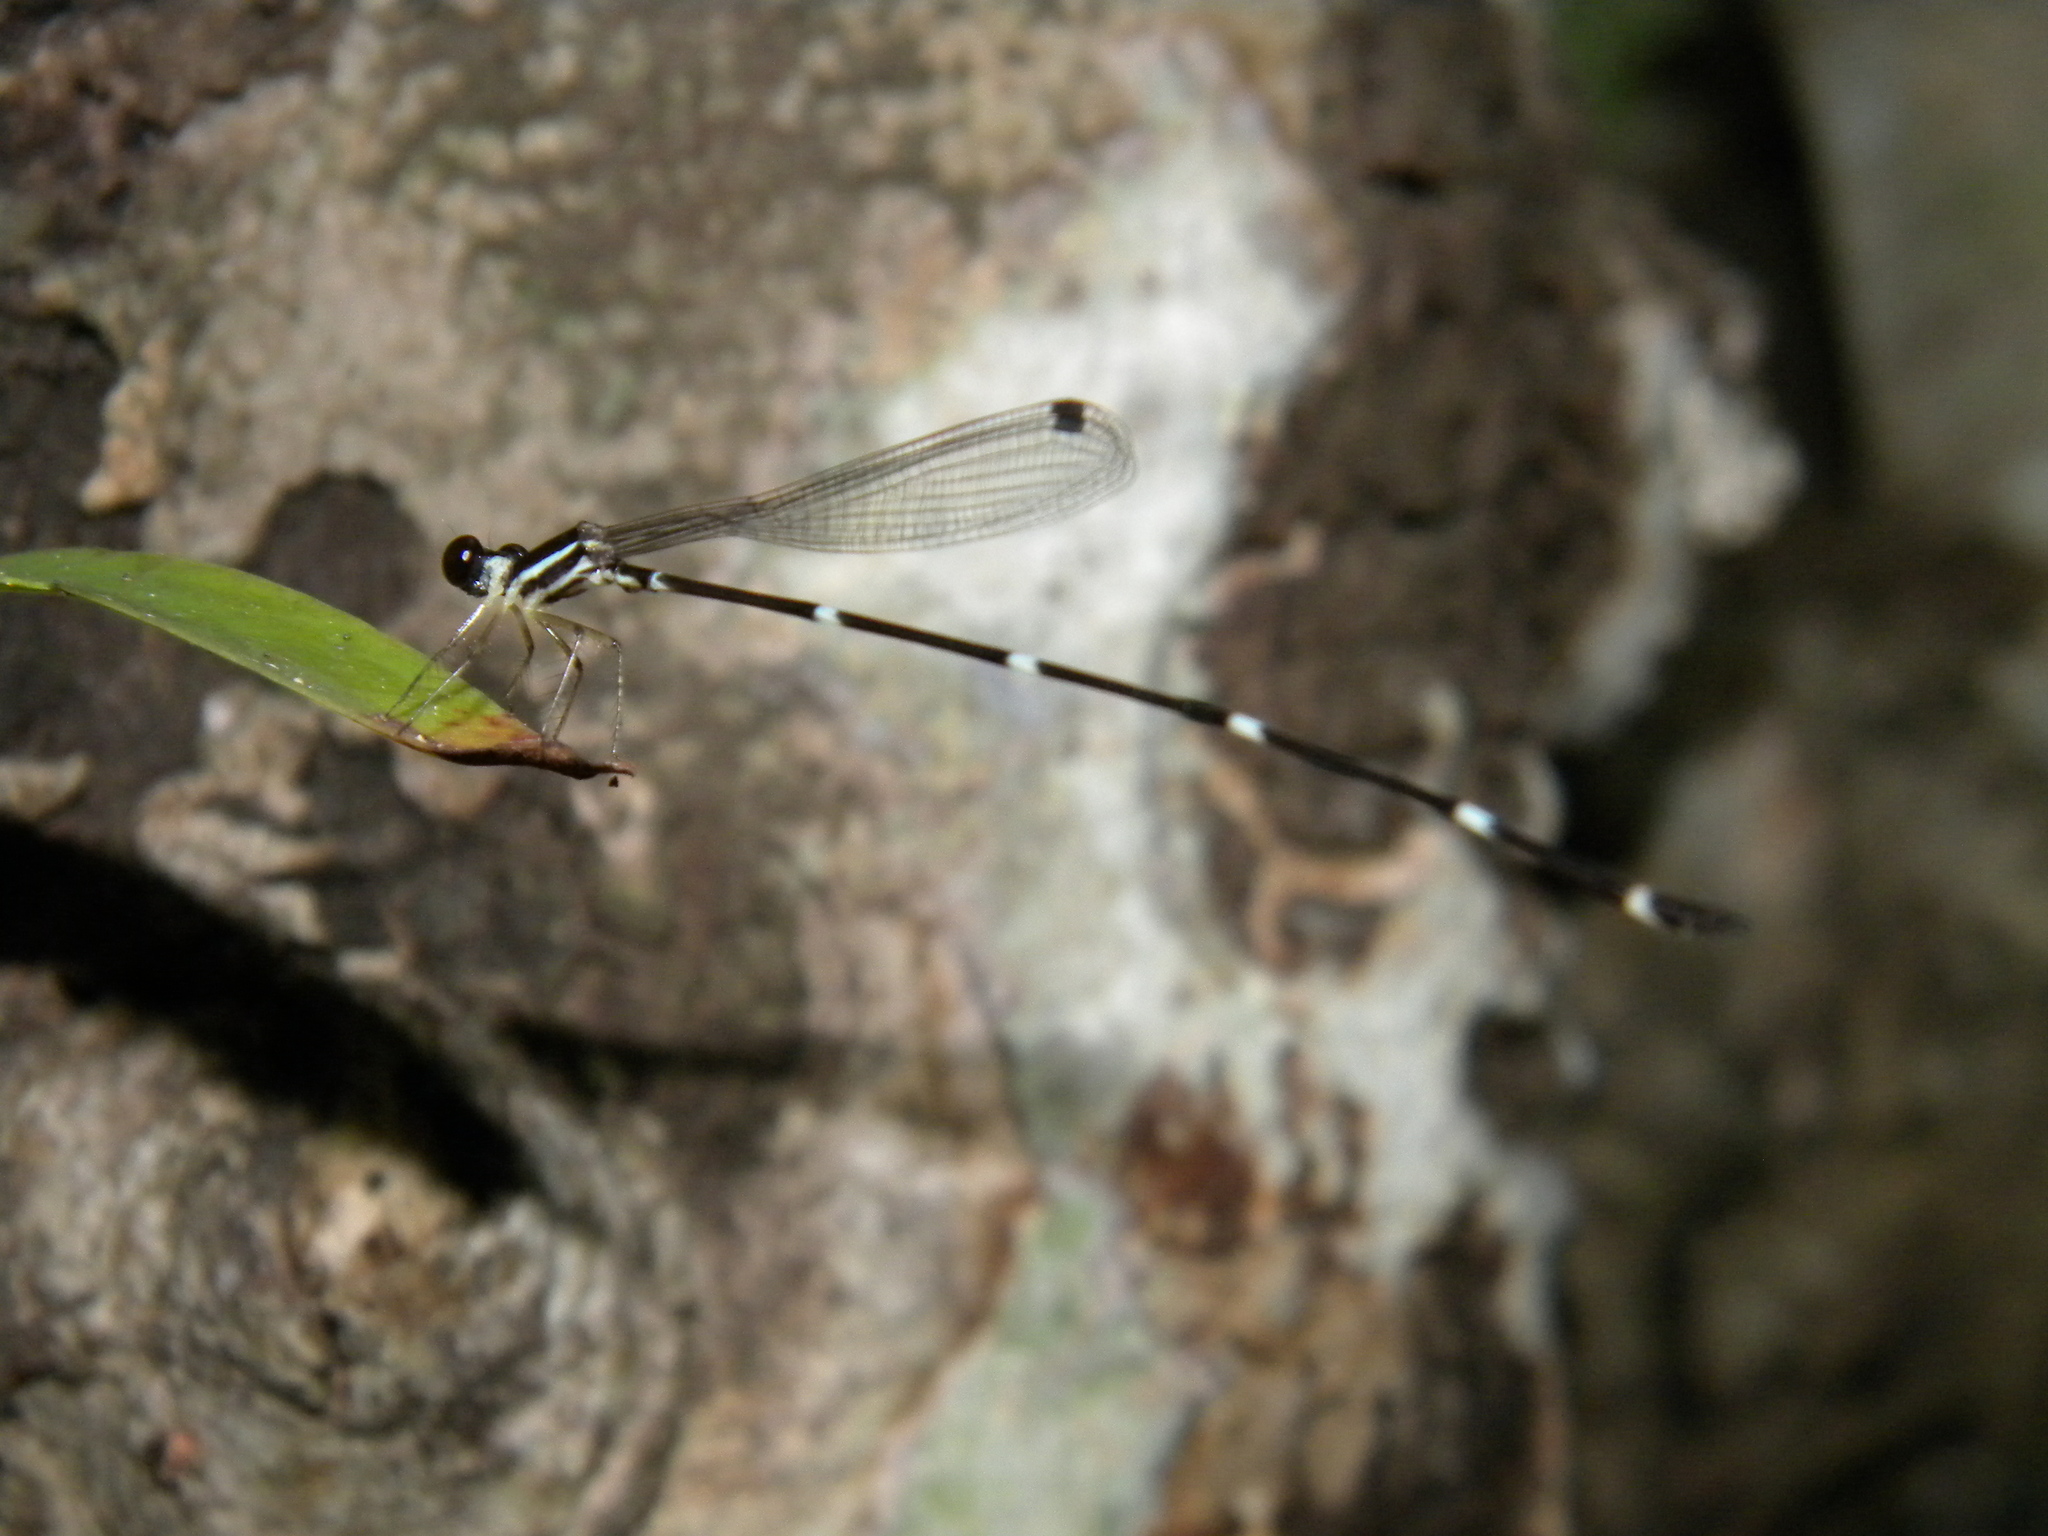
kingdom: Animalia
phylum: Arthropoda
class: Insecta
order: Odonata
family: Platystictidae
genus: Protosticta
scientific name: Protosticta gravelyi
